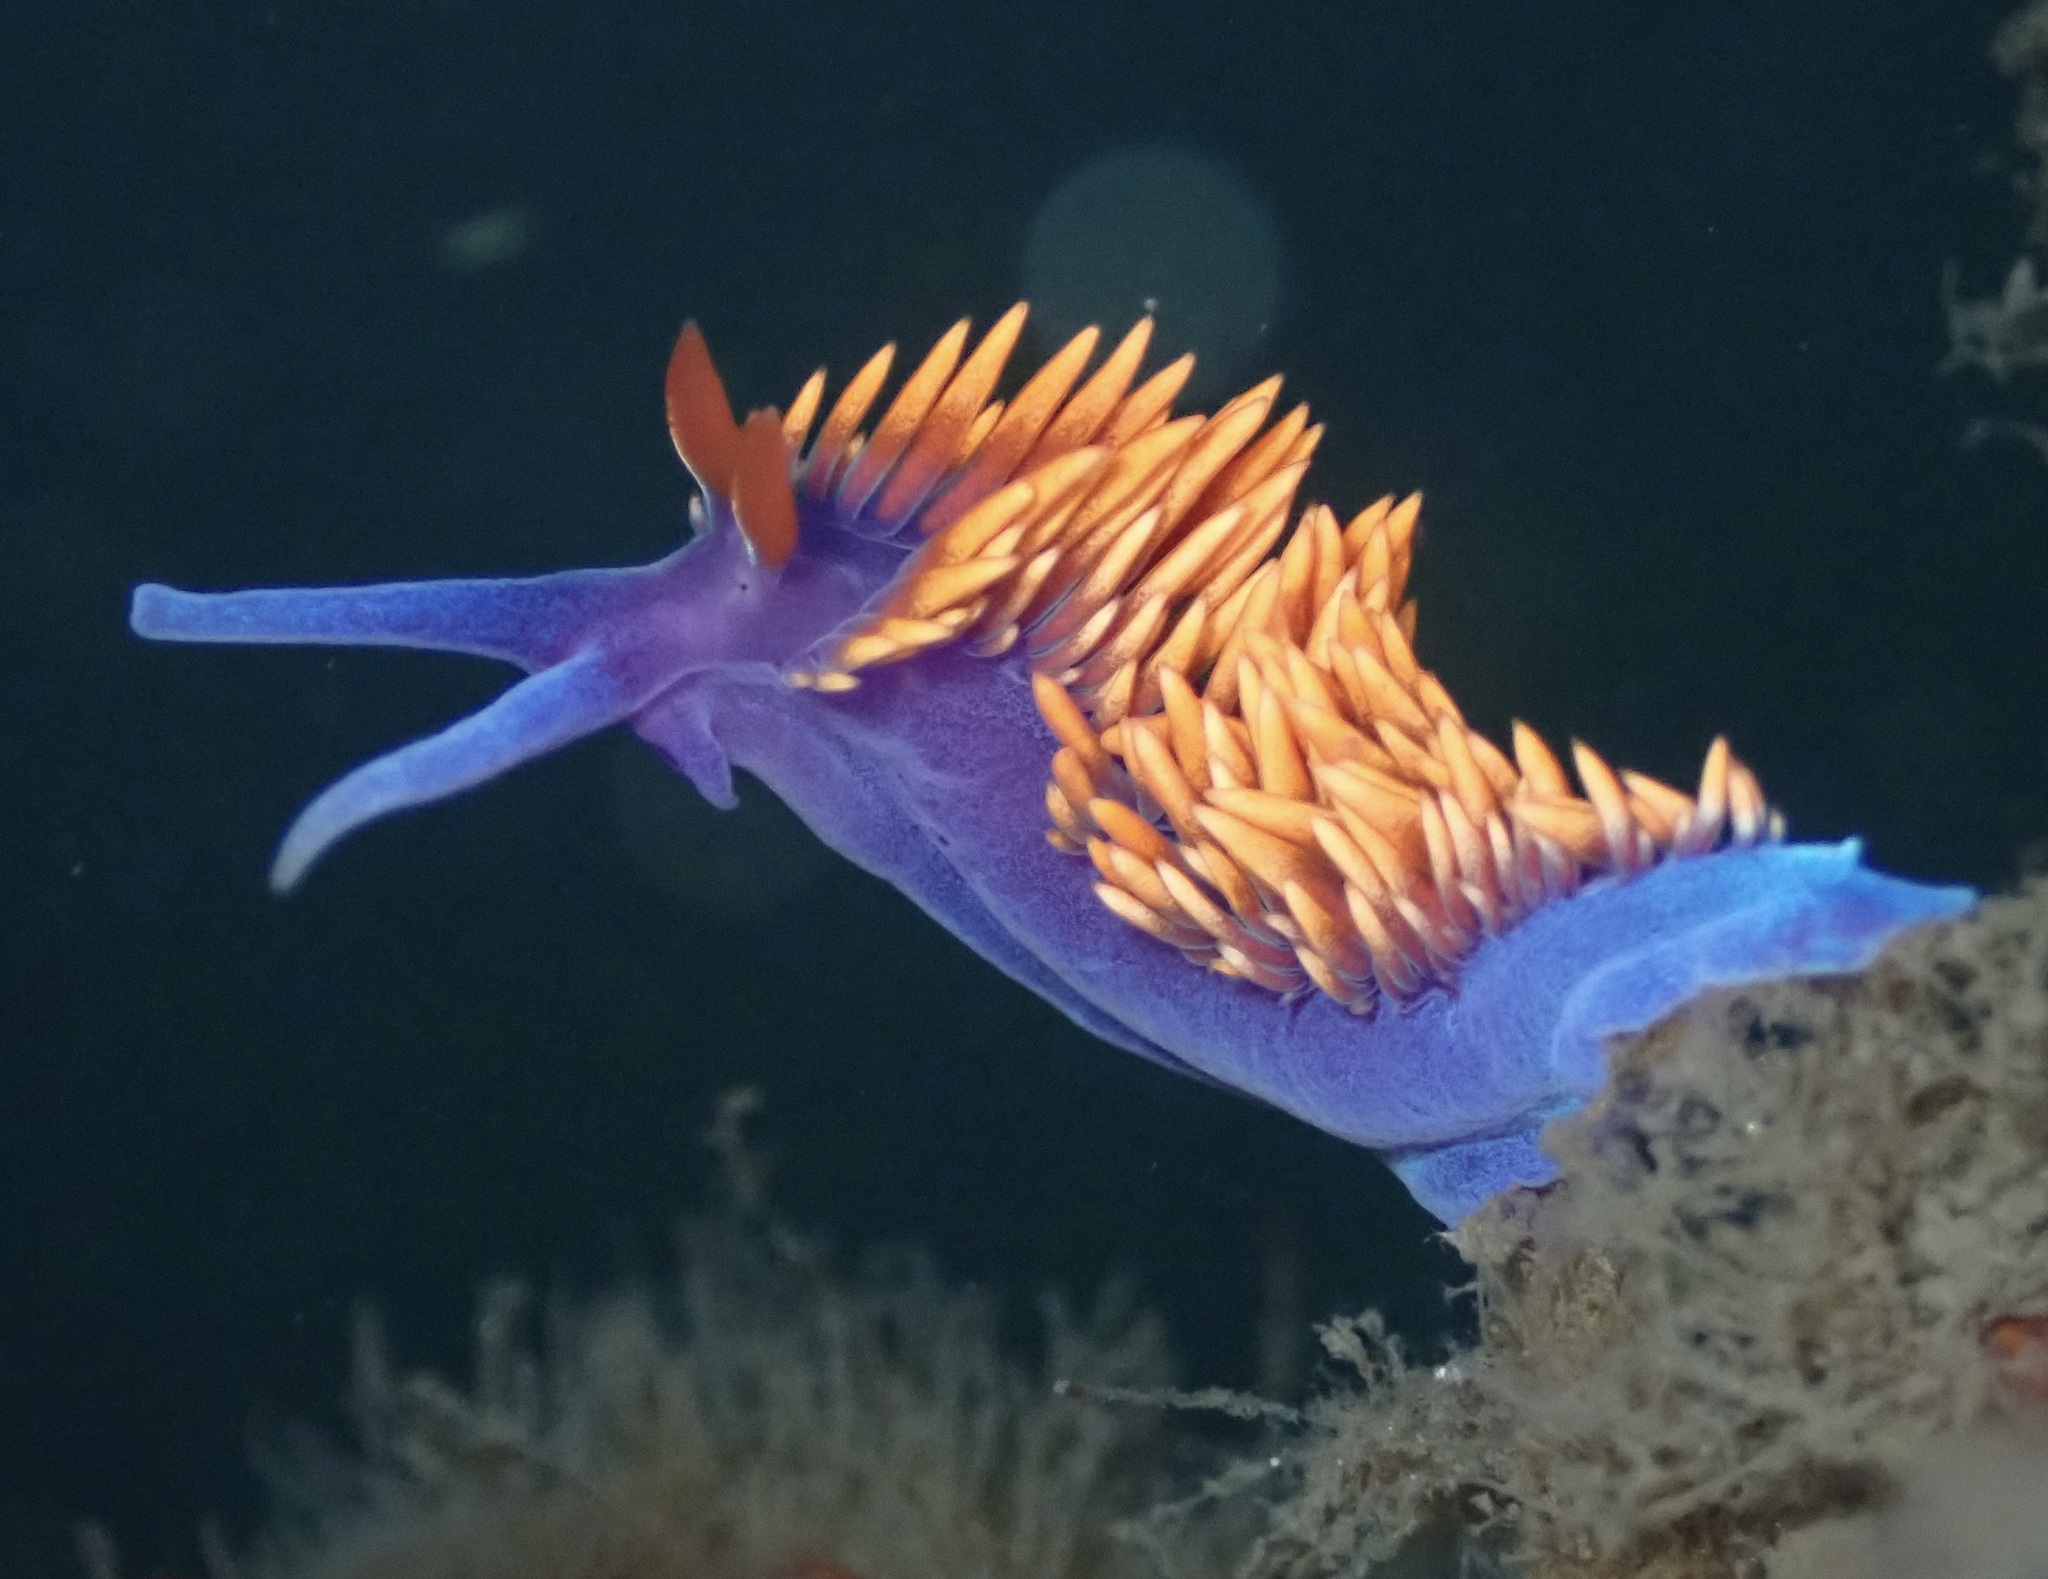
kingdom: Animalia
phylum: Mollusca
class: Gastropoda
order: Nudibranchia
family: Flabellinopsidae
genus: Flabellinopsis
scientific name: Flabellinopsis iodinea
